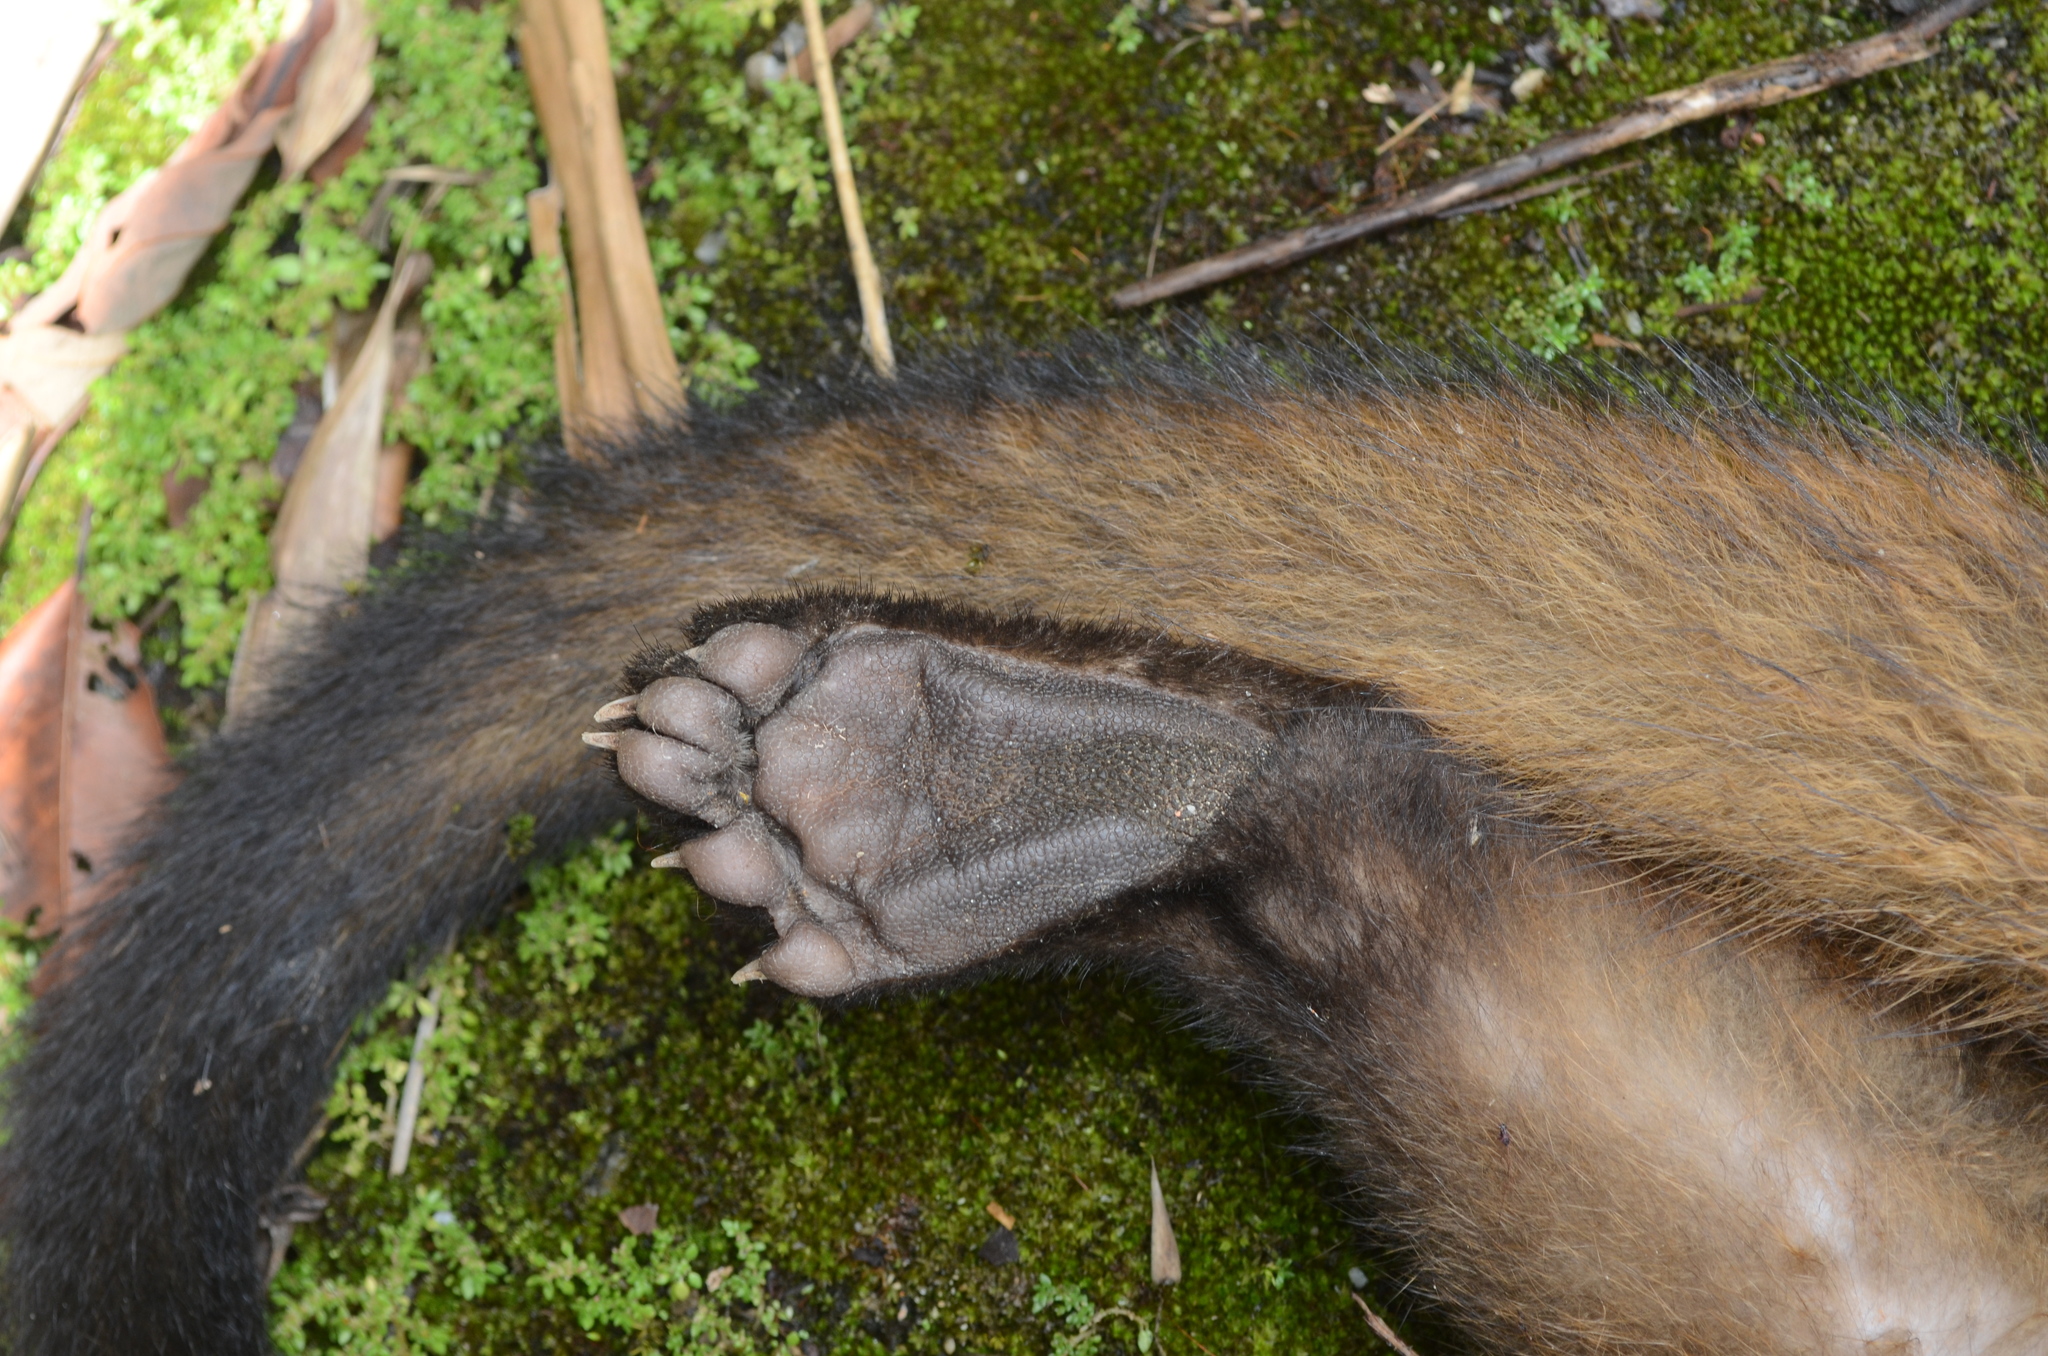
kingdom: Animalia
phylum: Chordata
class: Mammalia
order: Carnivora
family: Viverridae
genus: Paguma
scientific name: Paguma larvata
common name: Masked palm civet
